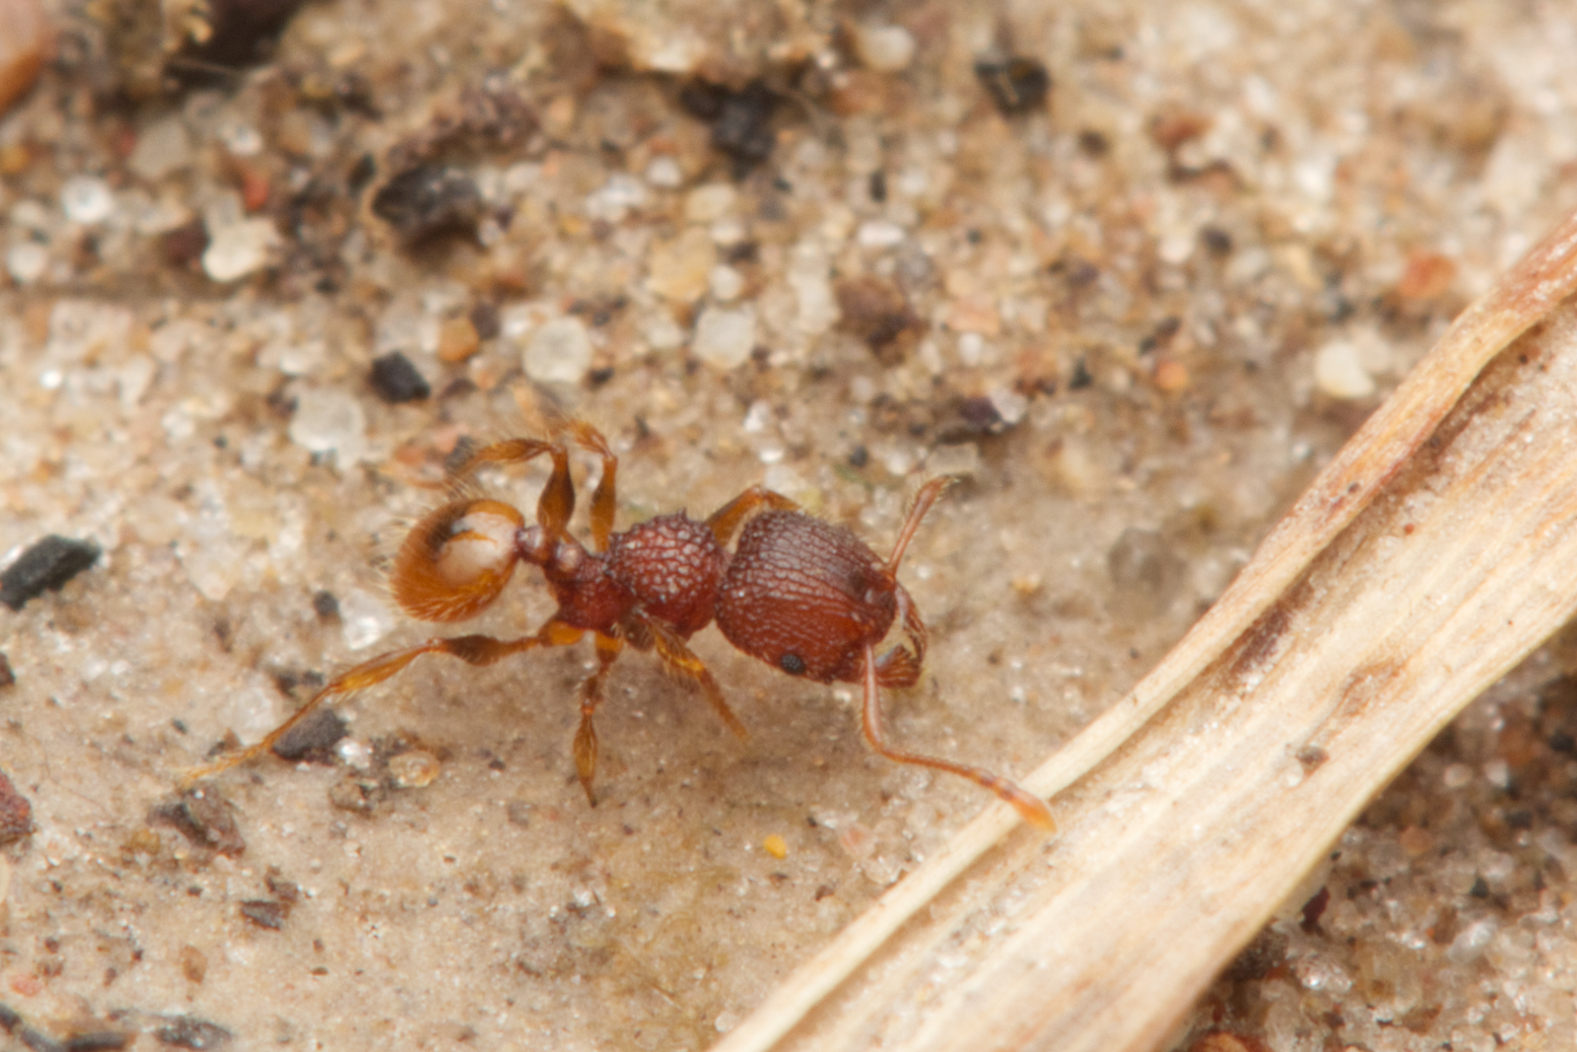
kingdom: Animalia
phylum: Arthropoda
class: Insecta
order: Hymenoptera
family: Formicidae
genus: Pheidole
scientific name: Pheidole longiceps
